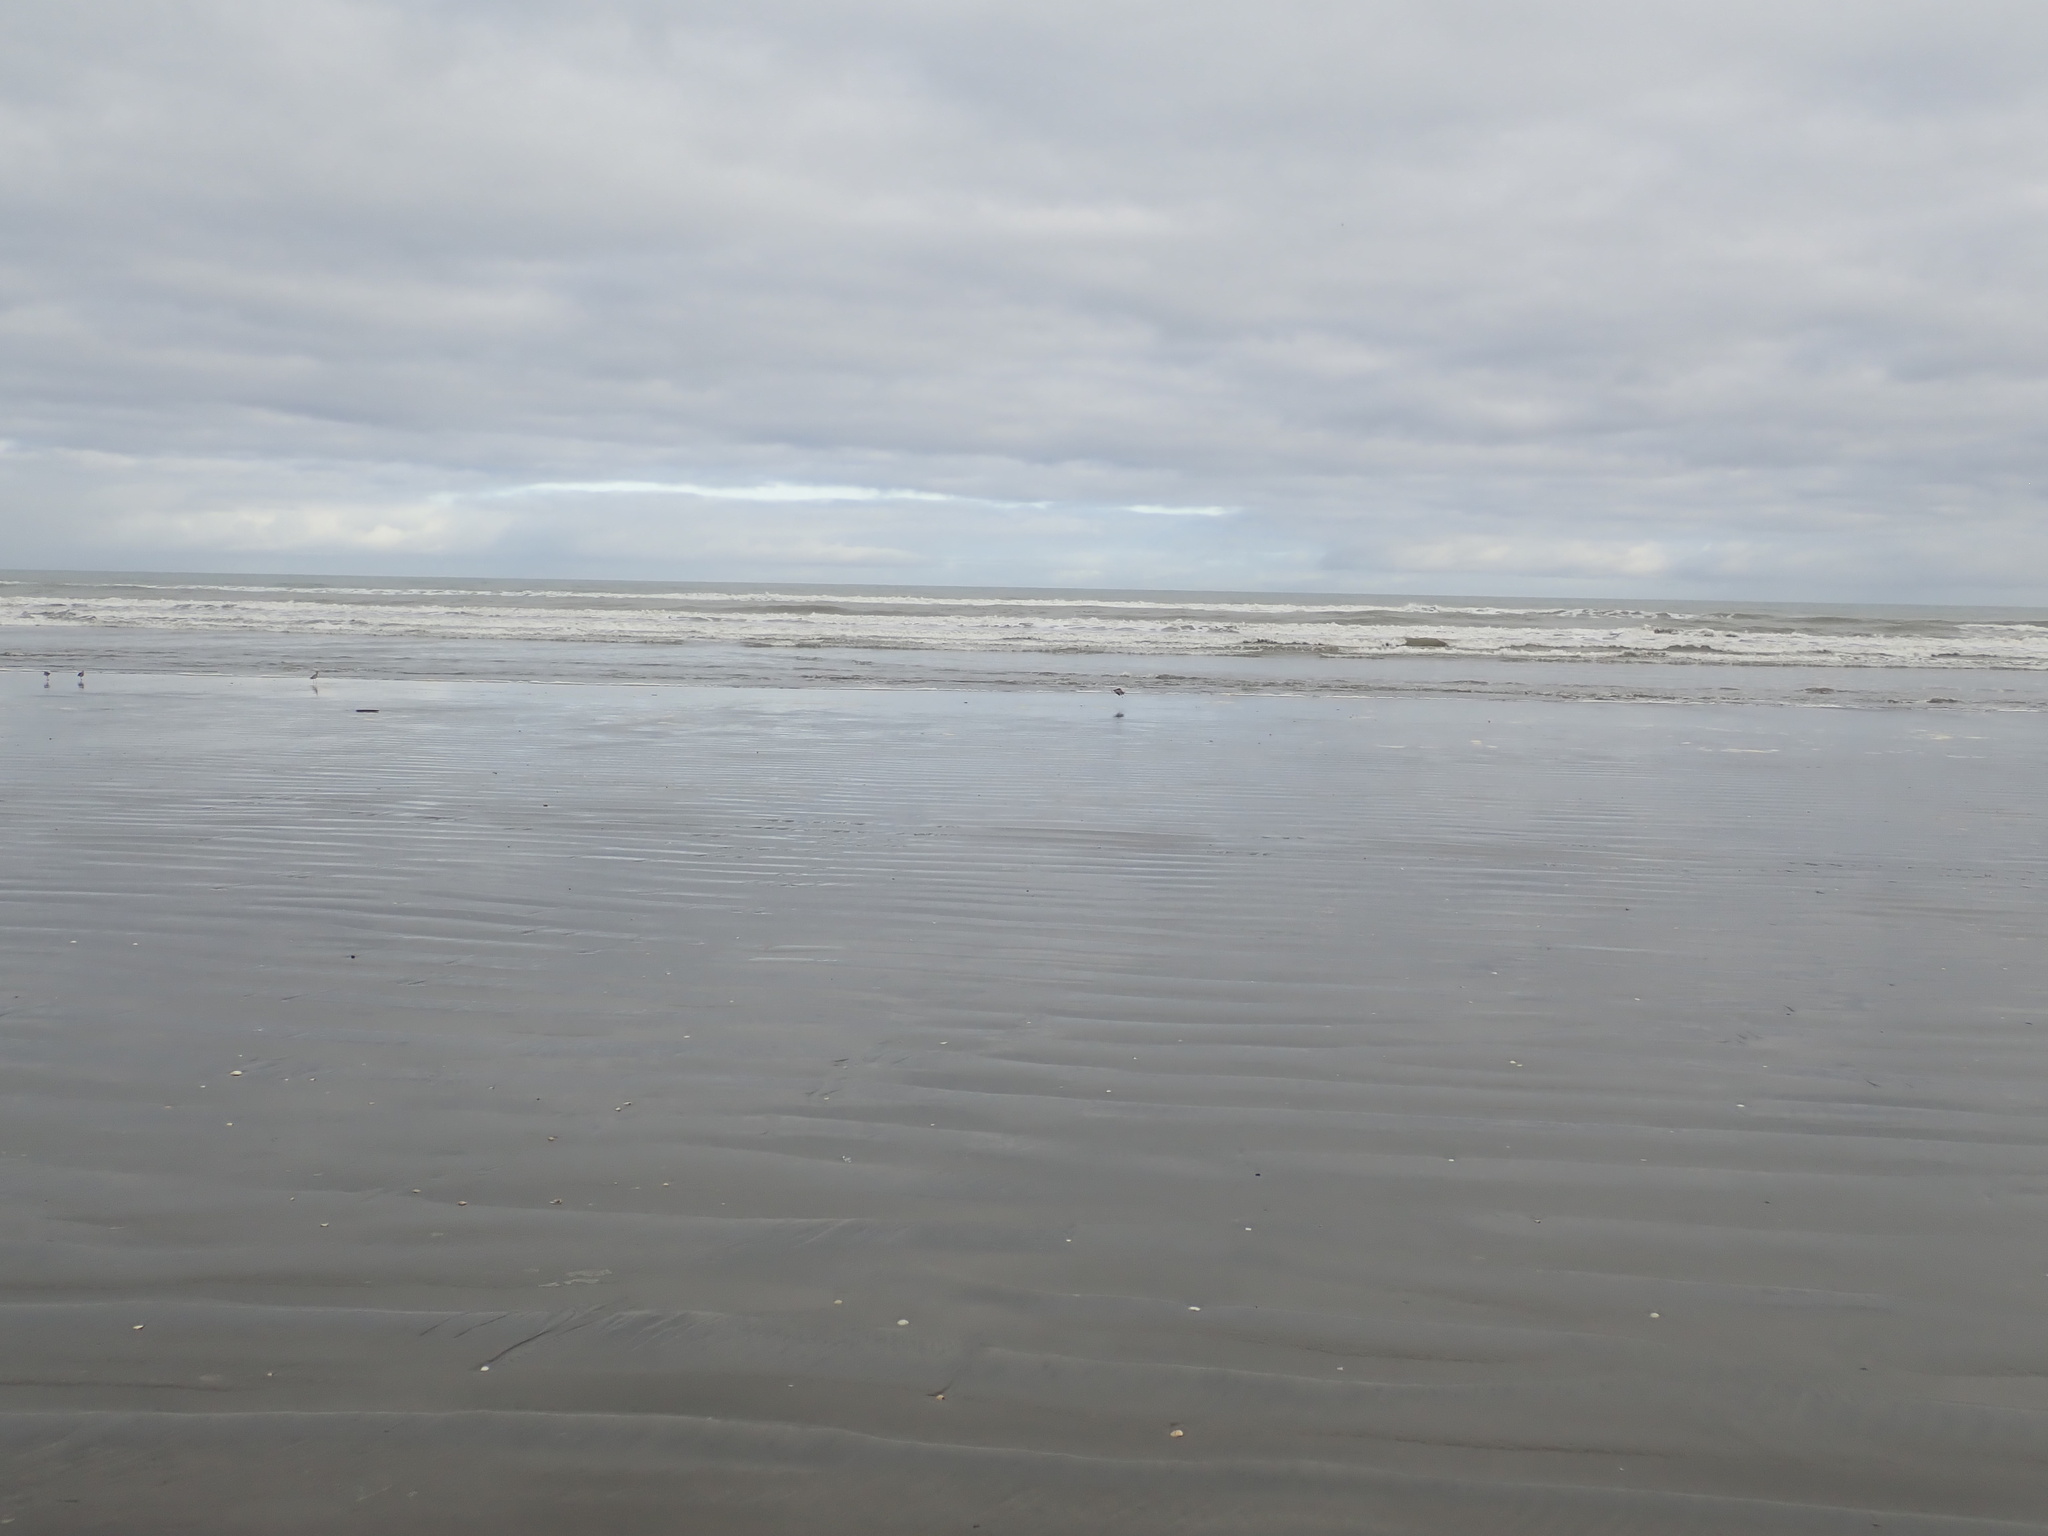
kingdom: Animalia
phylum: Chordata
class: Aves
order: Charadriiformes
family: Scolopacidae
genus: Limosa
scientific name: Limosa lapponica
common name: Bar-tailed godwit
